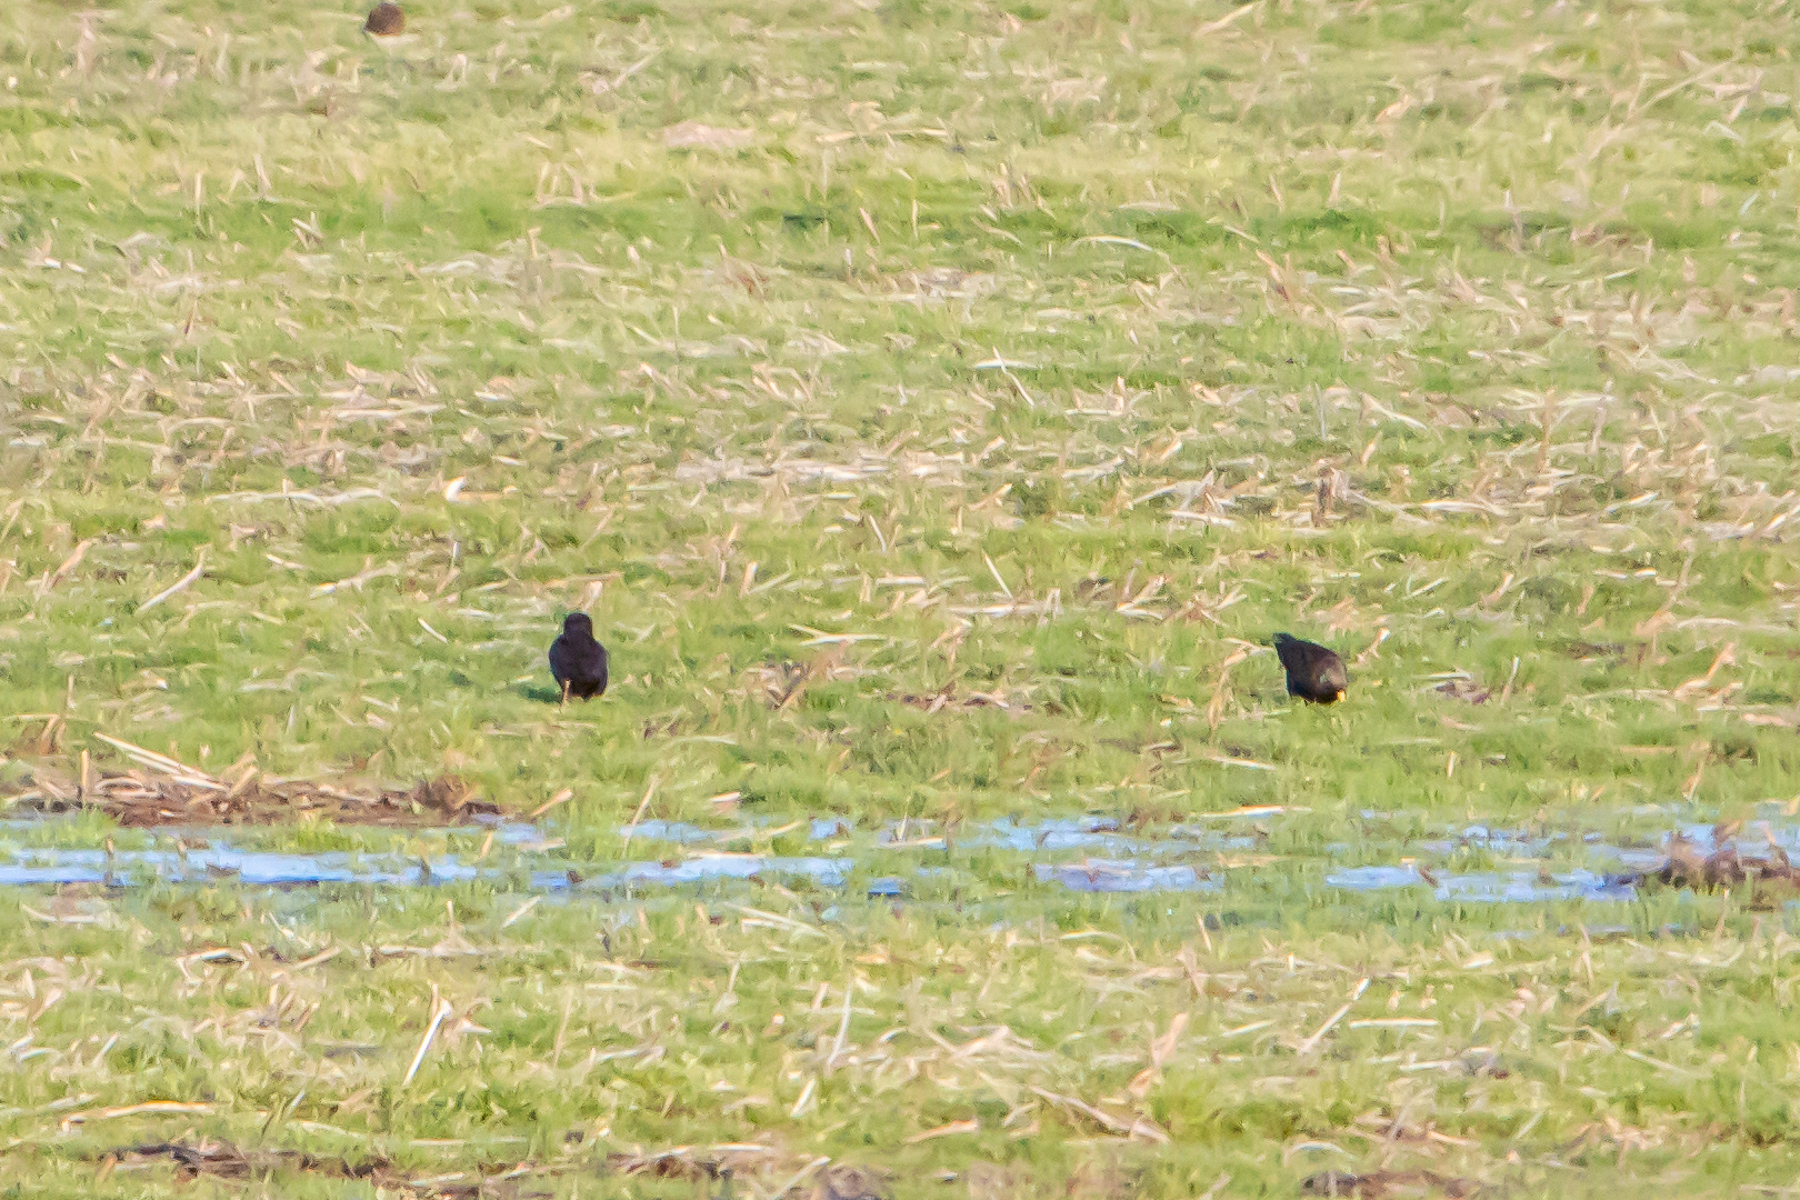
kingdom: Animalia
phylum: Chordata
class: Aves
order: Passeriformes
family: Sturnidae
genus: Sturnus
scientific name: Sturnus vulgaris
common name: Common starling
